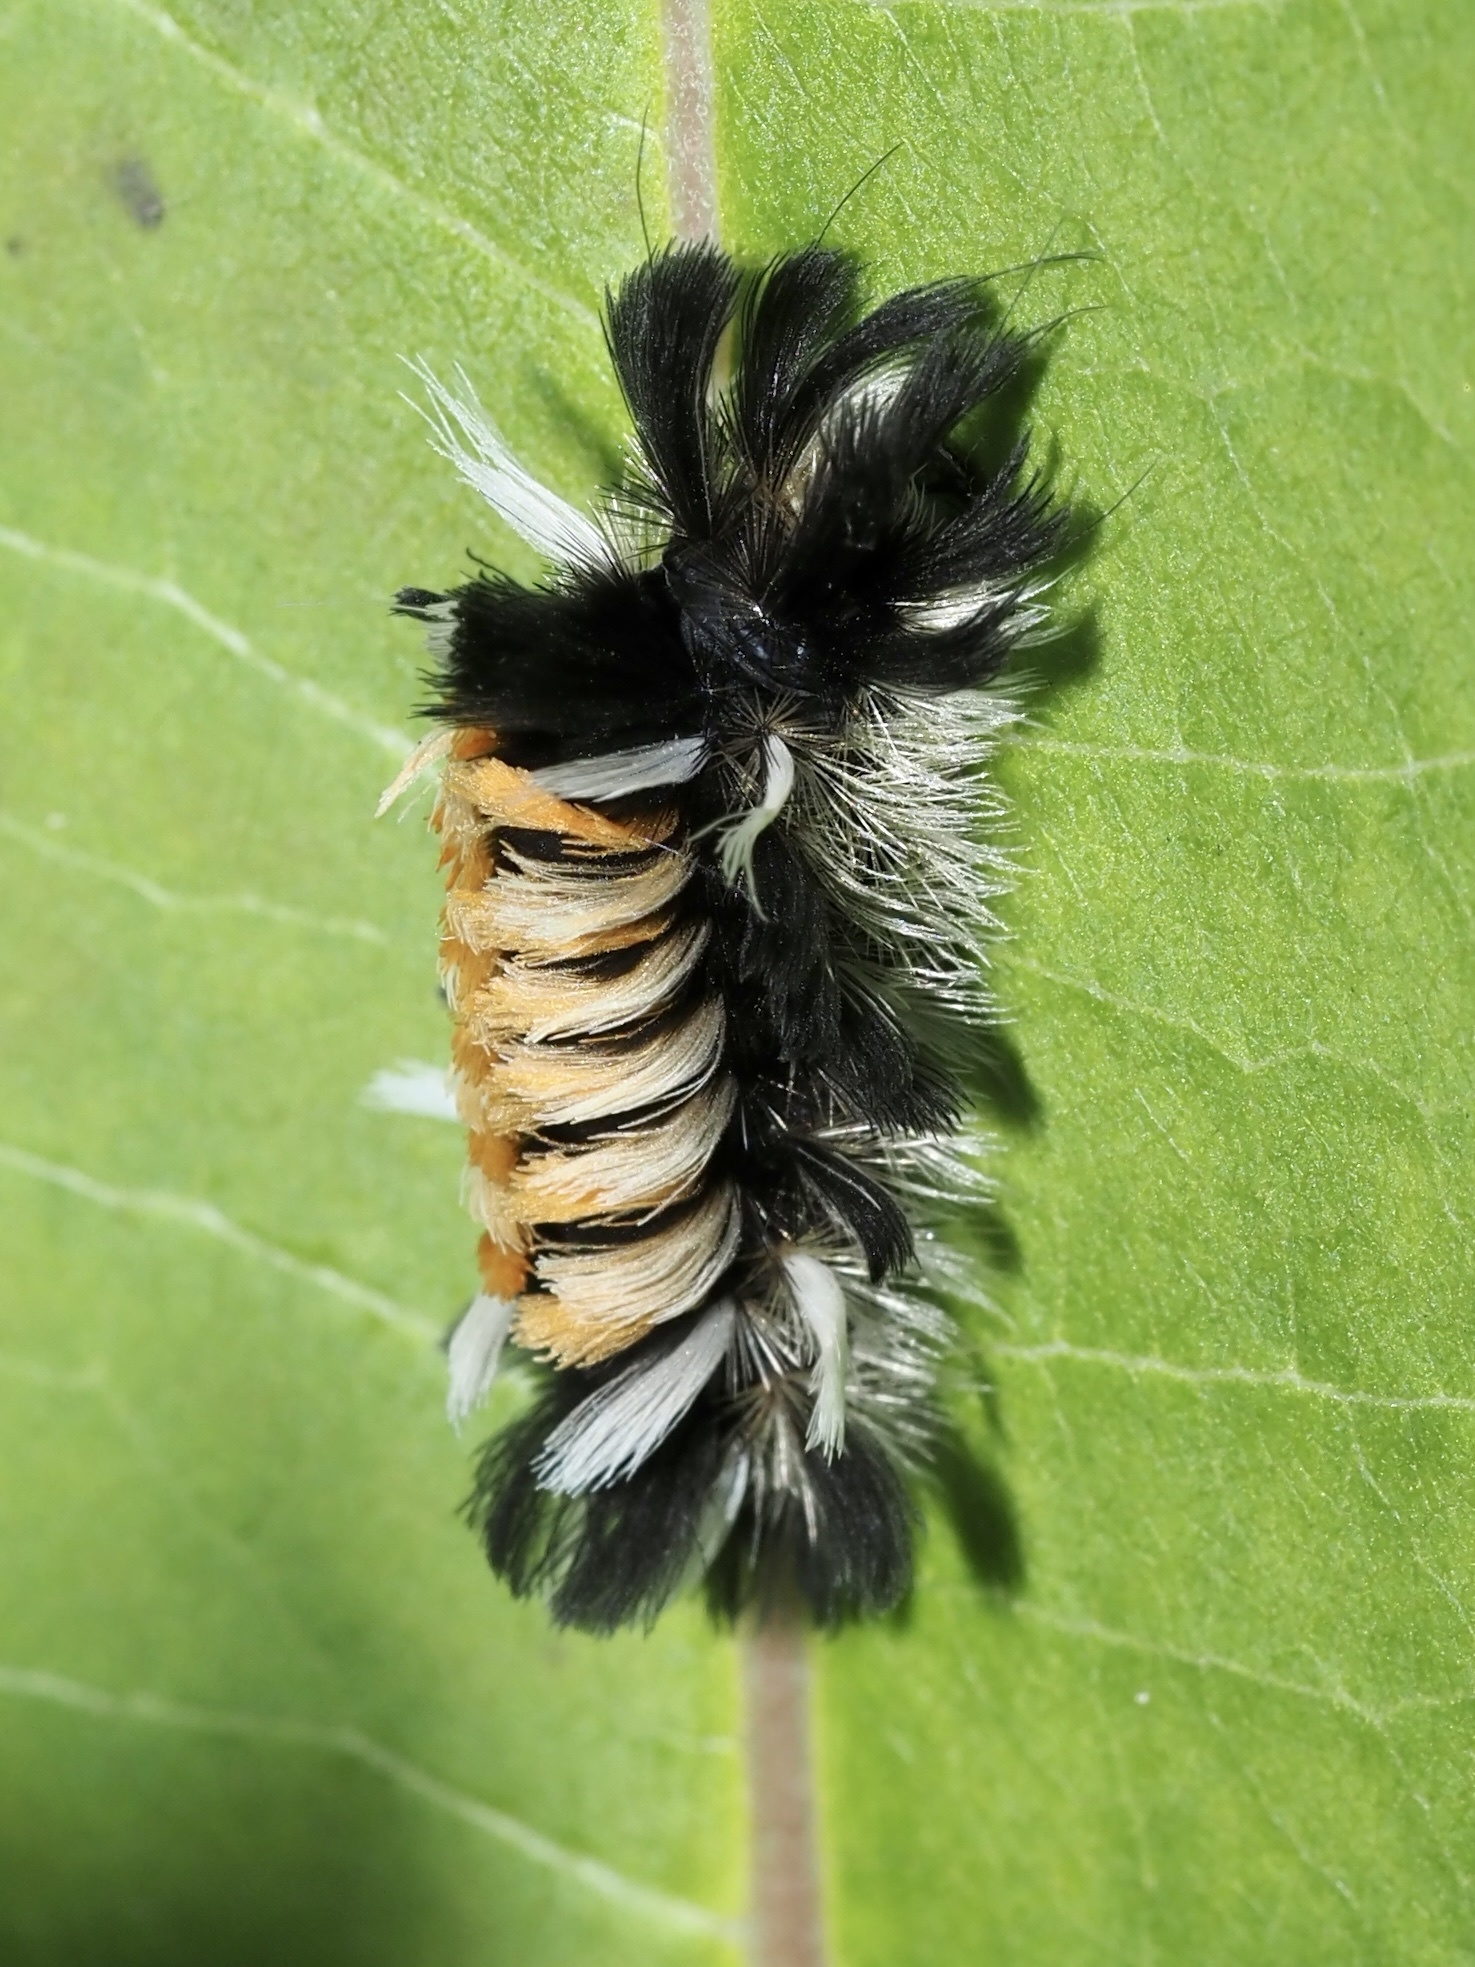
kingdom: Animalia
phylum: Arthropoda
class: Insecta
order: Lepidoptera
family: Erebidae
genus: Euchaetes
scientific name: Euchaetes egle
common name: Milkweed tussock moth
